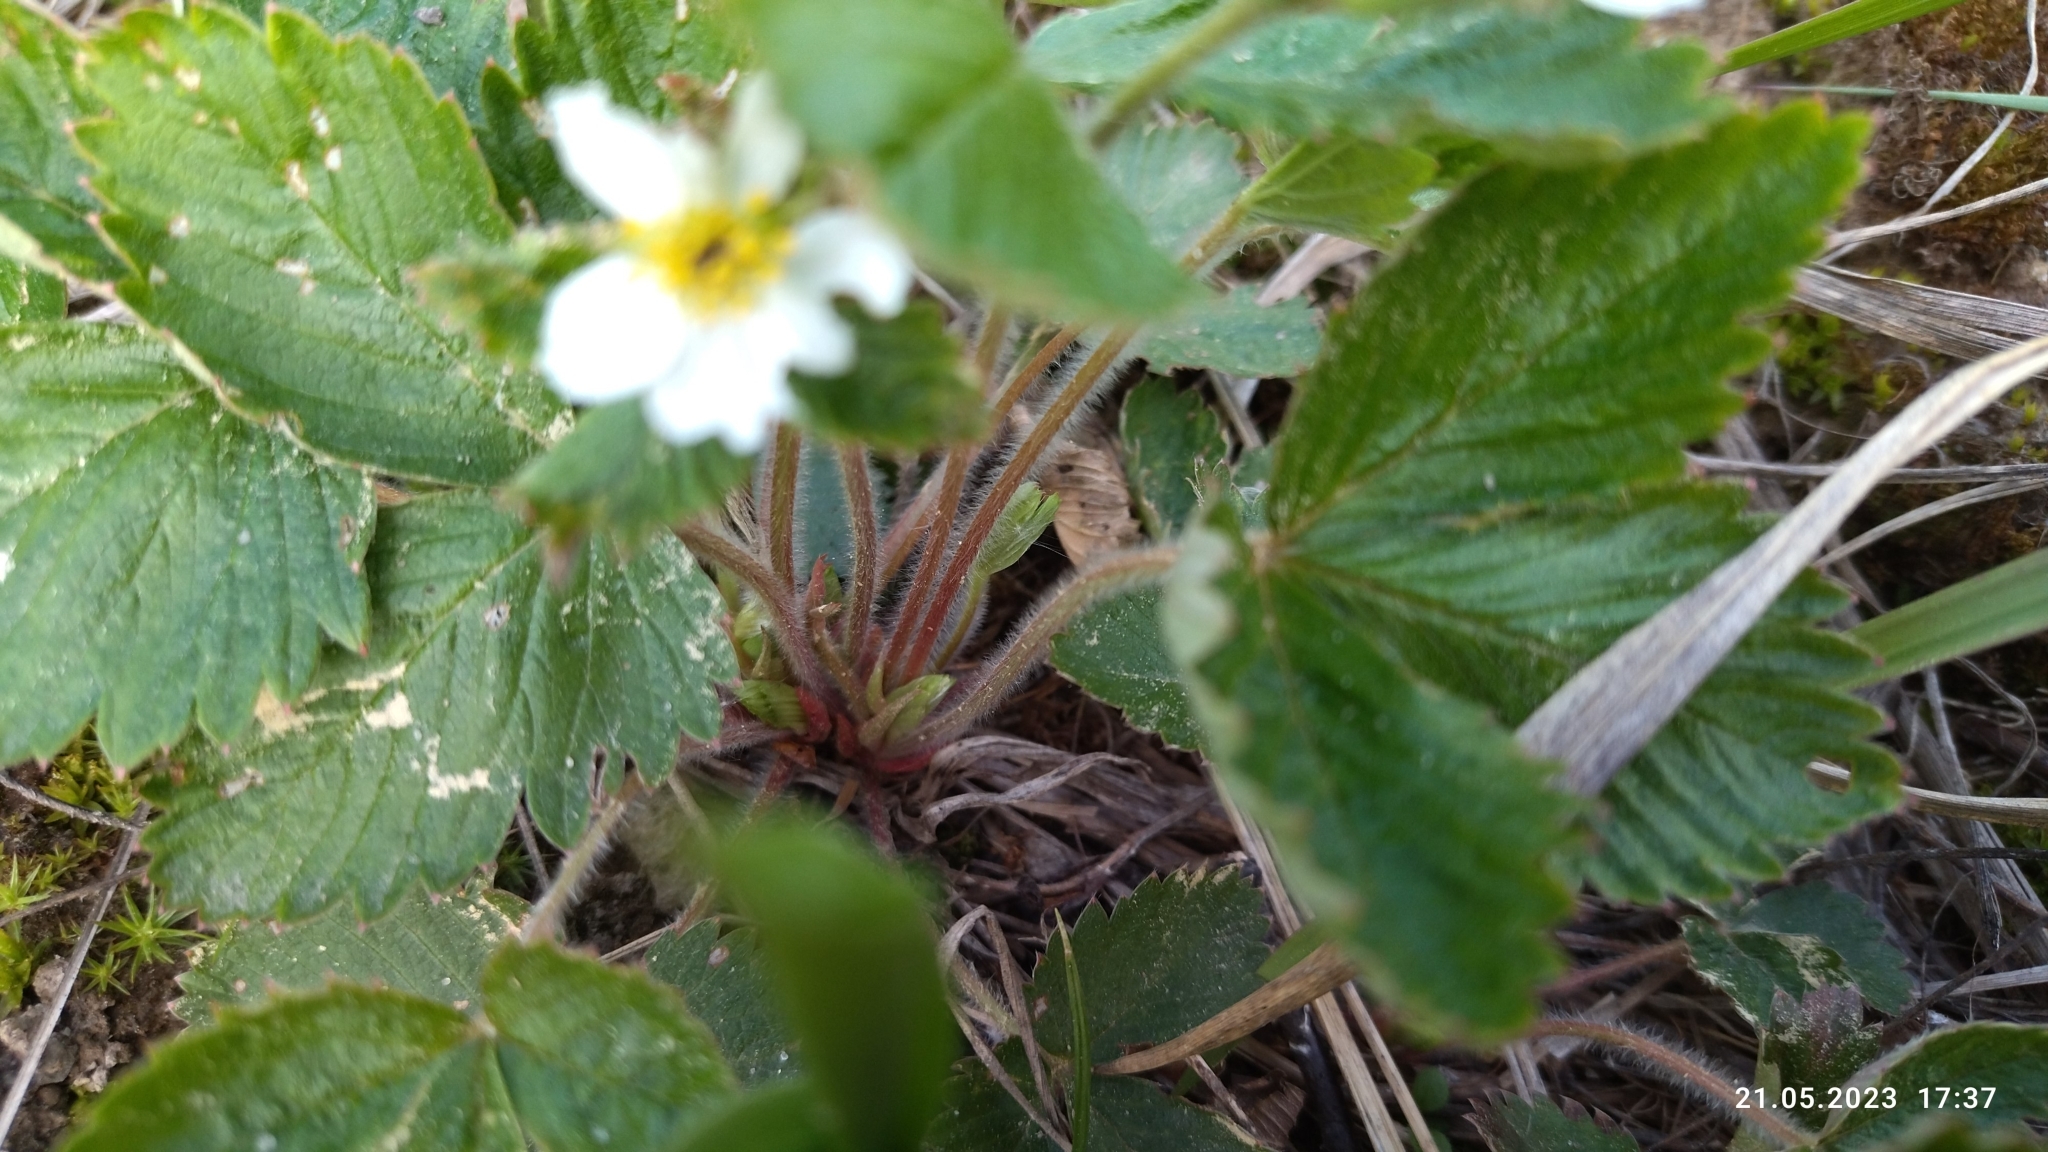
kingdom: Plantae
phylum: Tracheophyta
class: Magnoliopsida
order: Rosales
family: Rosaceae
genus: Fragaria
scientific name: Fragaria vesca
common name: Wild strawberry
